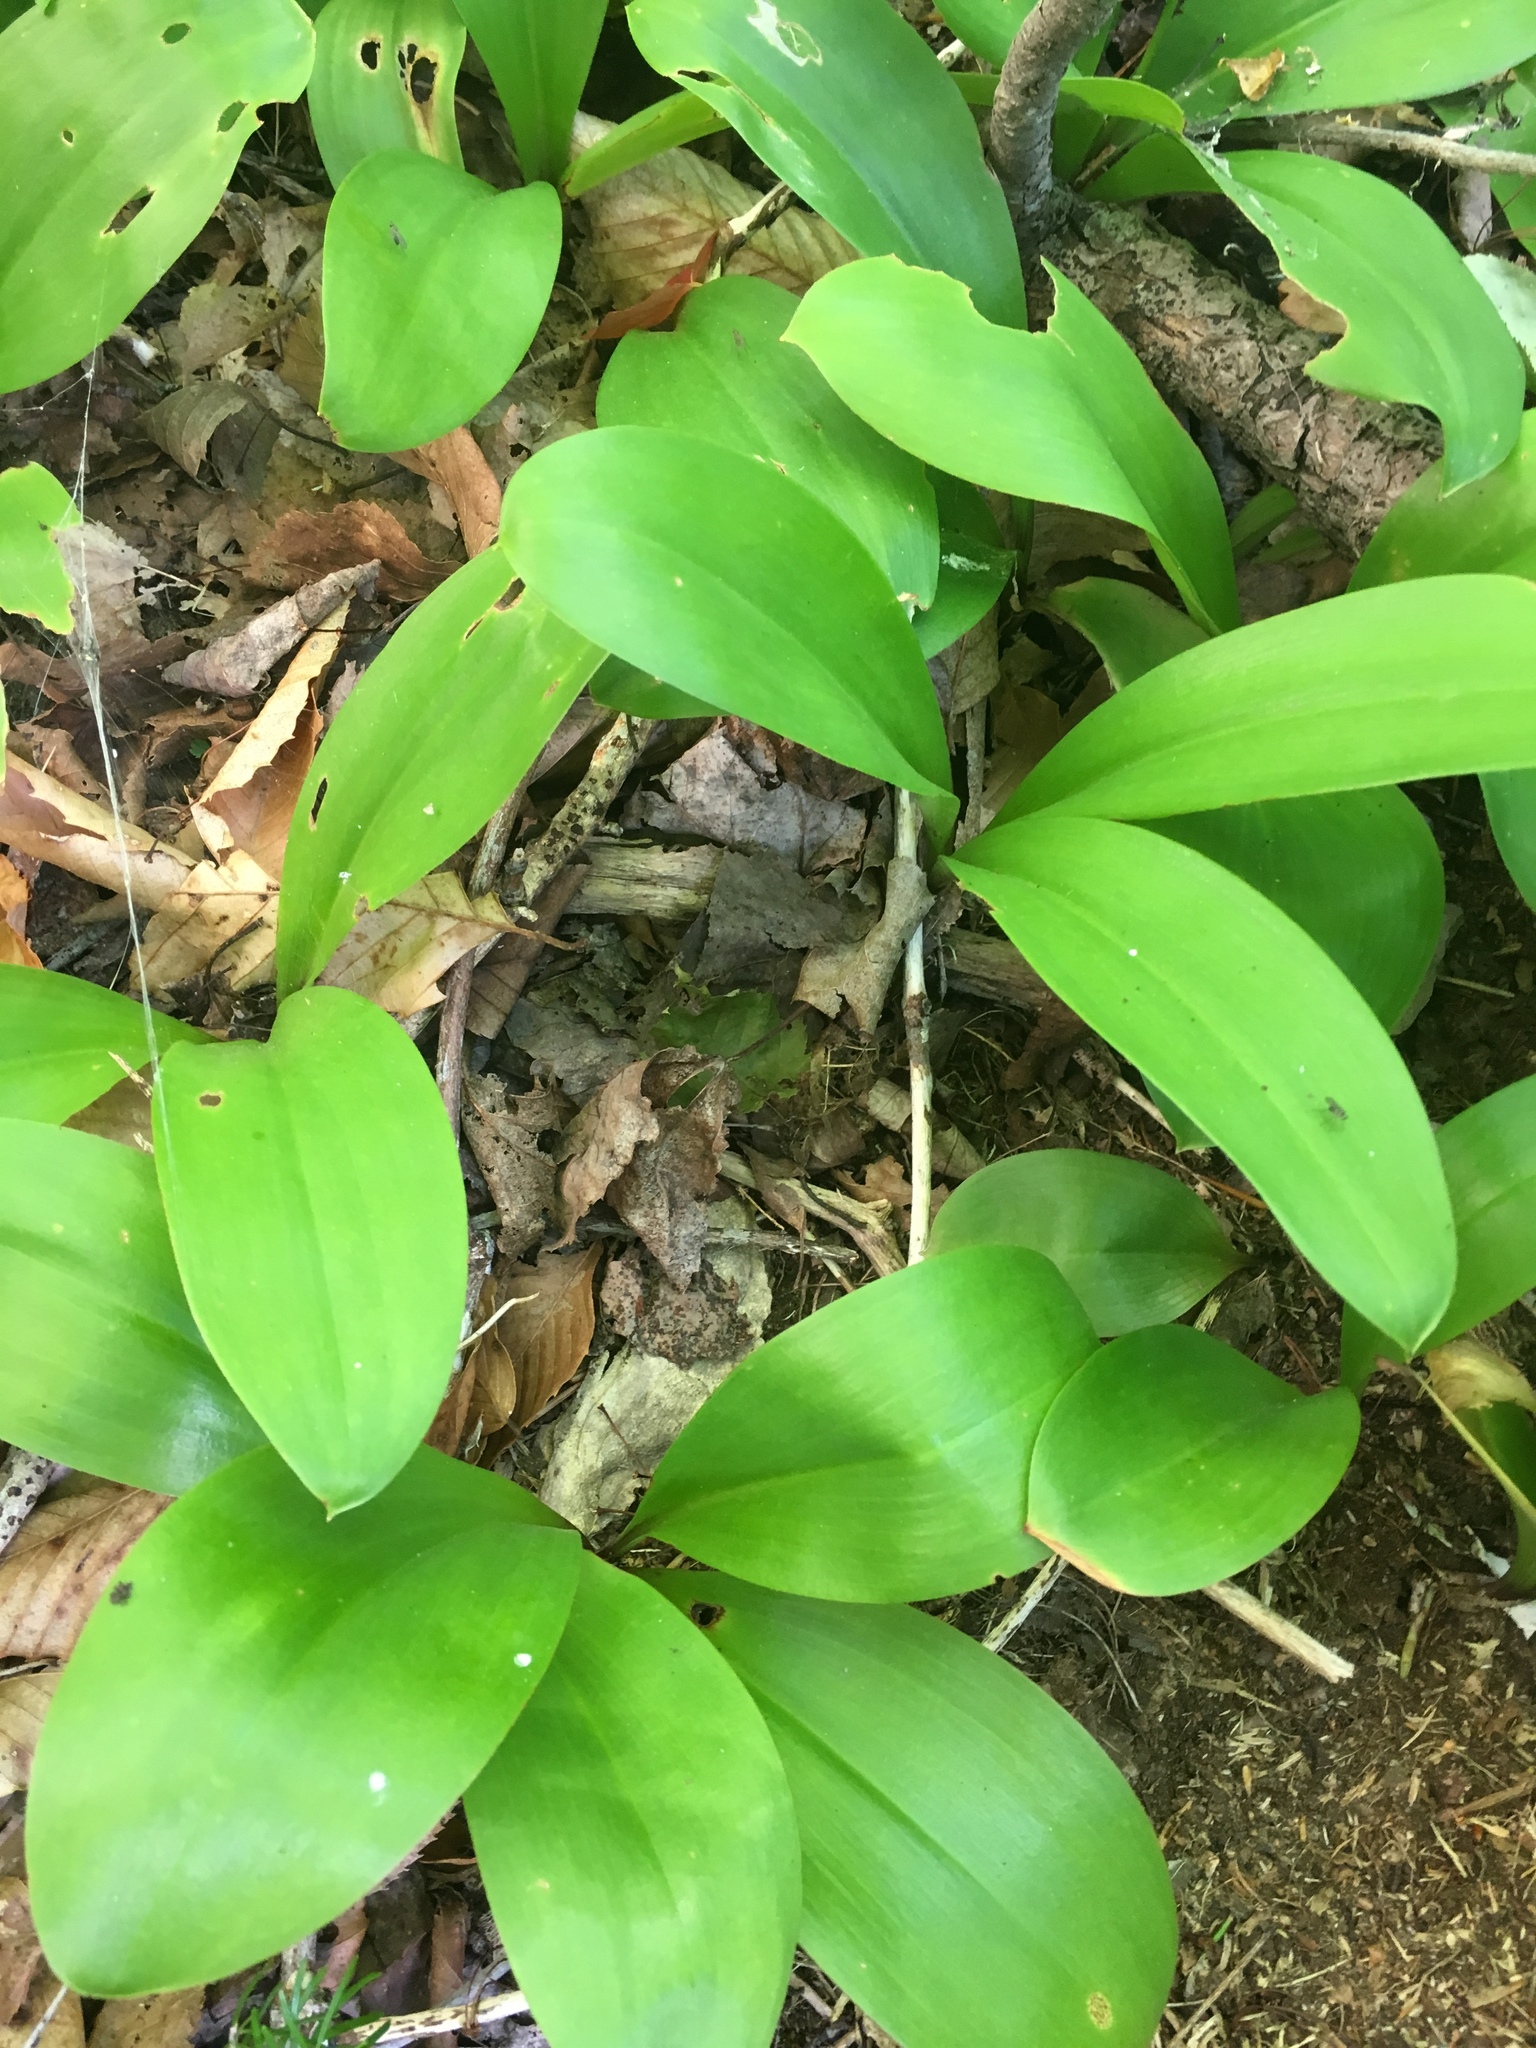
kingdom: Plantae
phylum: Tracheophyta
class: Liliopsida
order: Liliales
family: Liliaceae
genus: Clintonia
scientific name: Clintonia borealis
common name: Yellow clintonia
